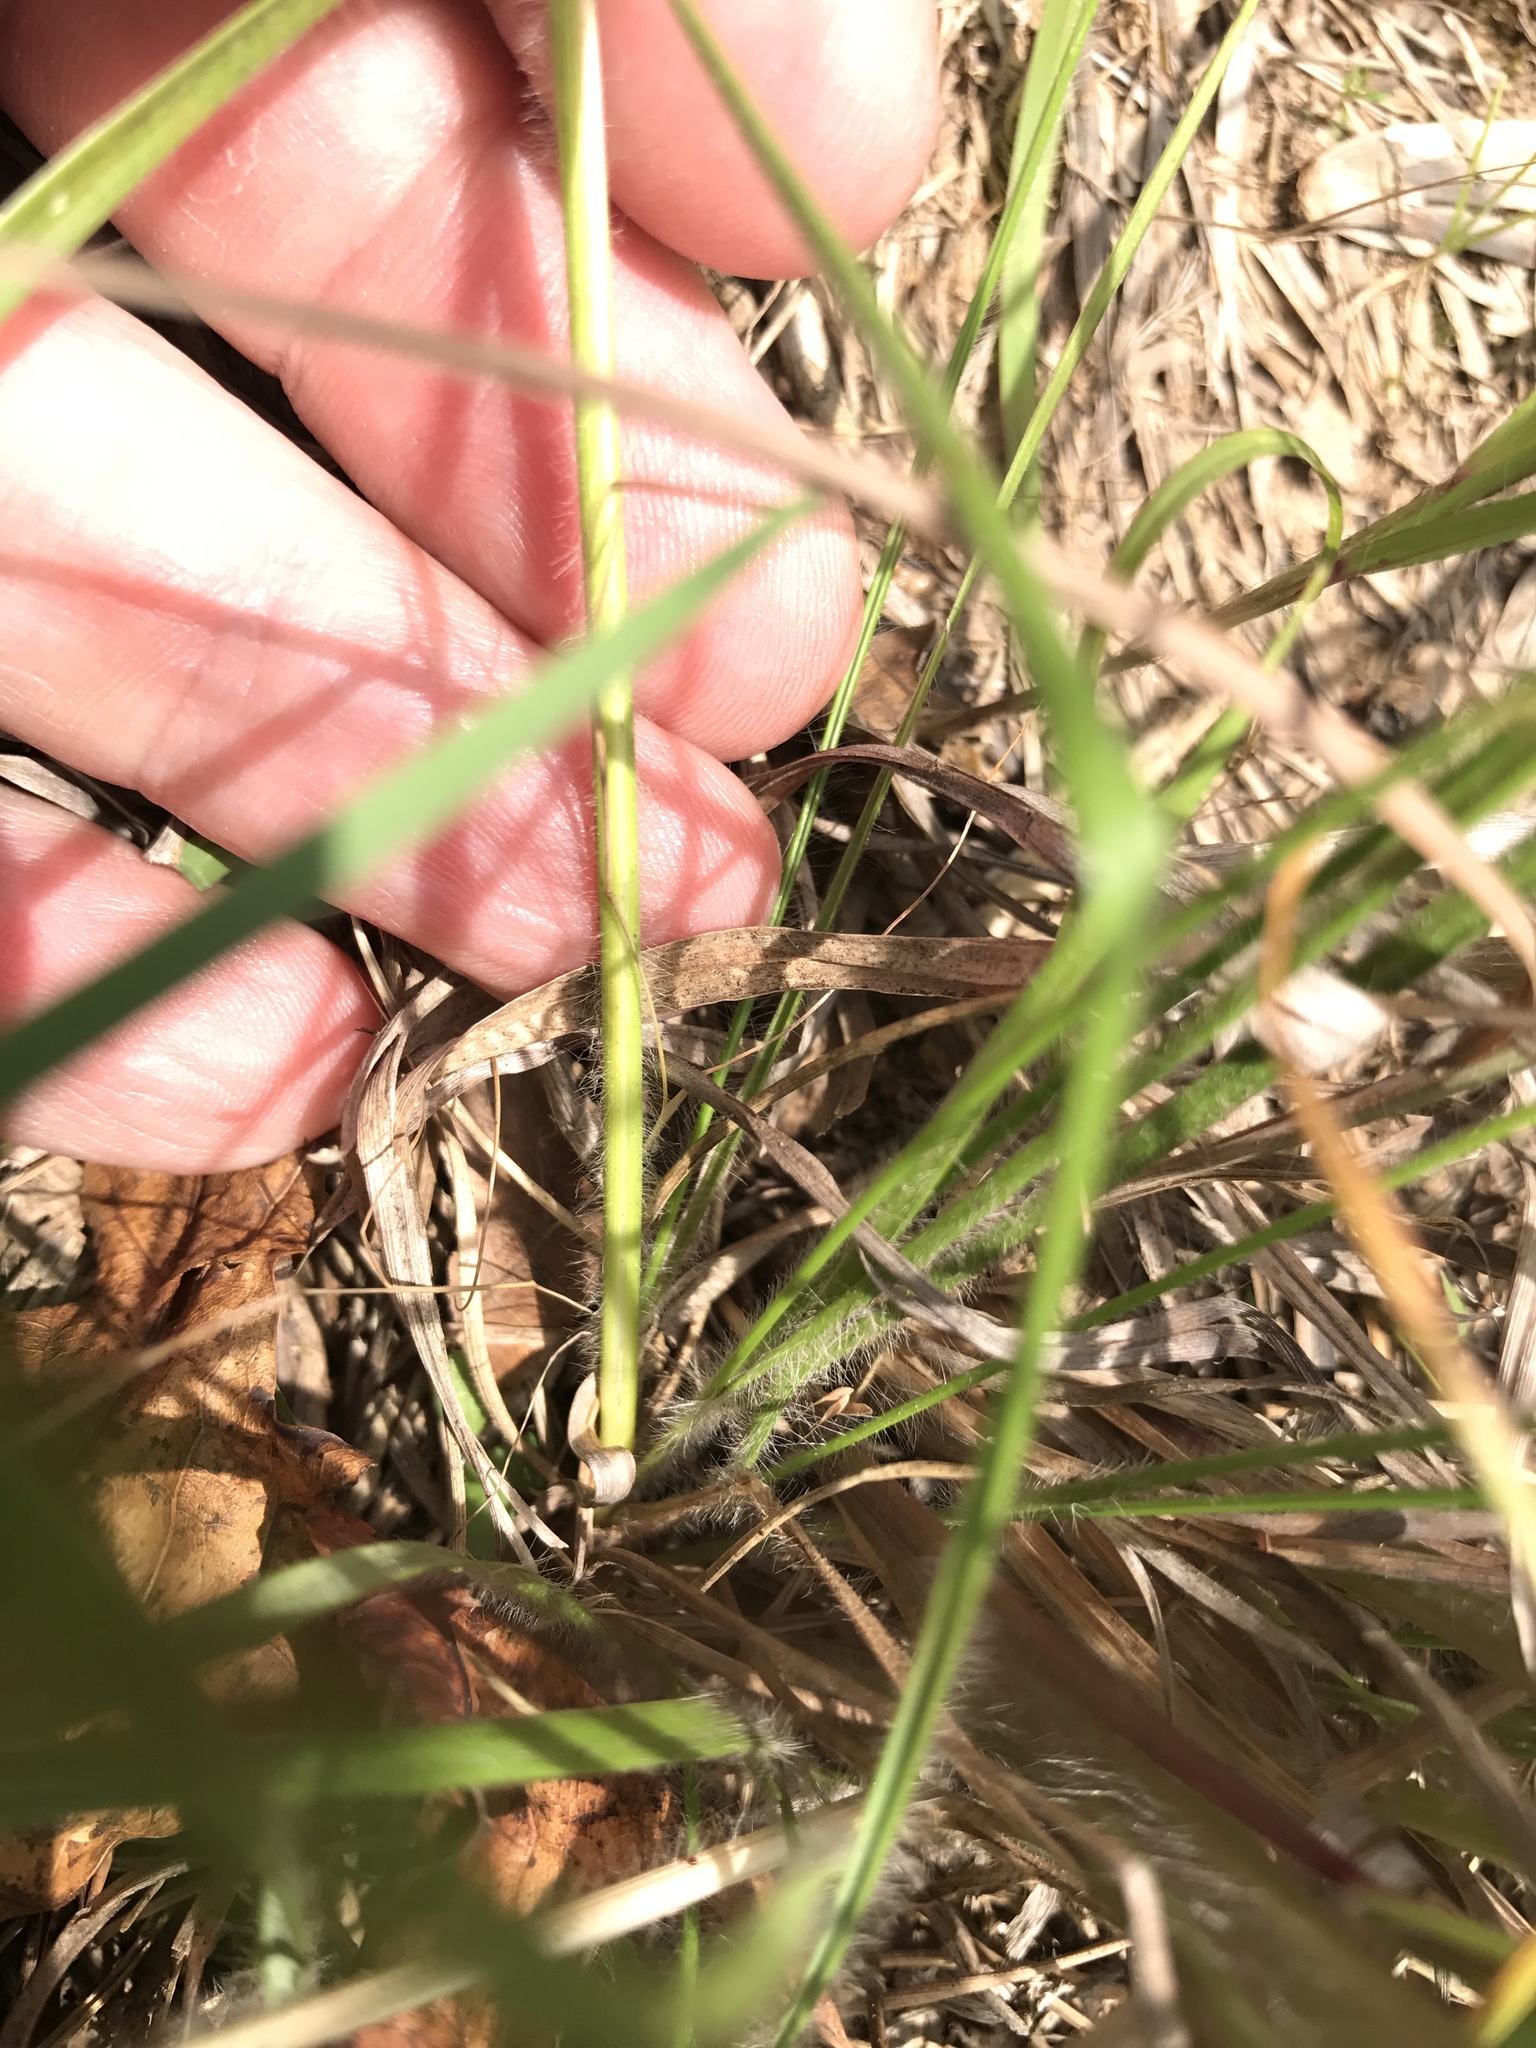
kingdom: Plantae
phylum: Tracheophyta
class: Liliopsida
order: Poales
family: Poaceae
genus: Danthonia
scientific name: Danthonia sericea
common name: Downy danthonia
